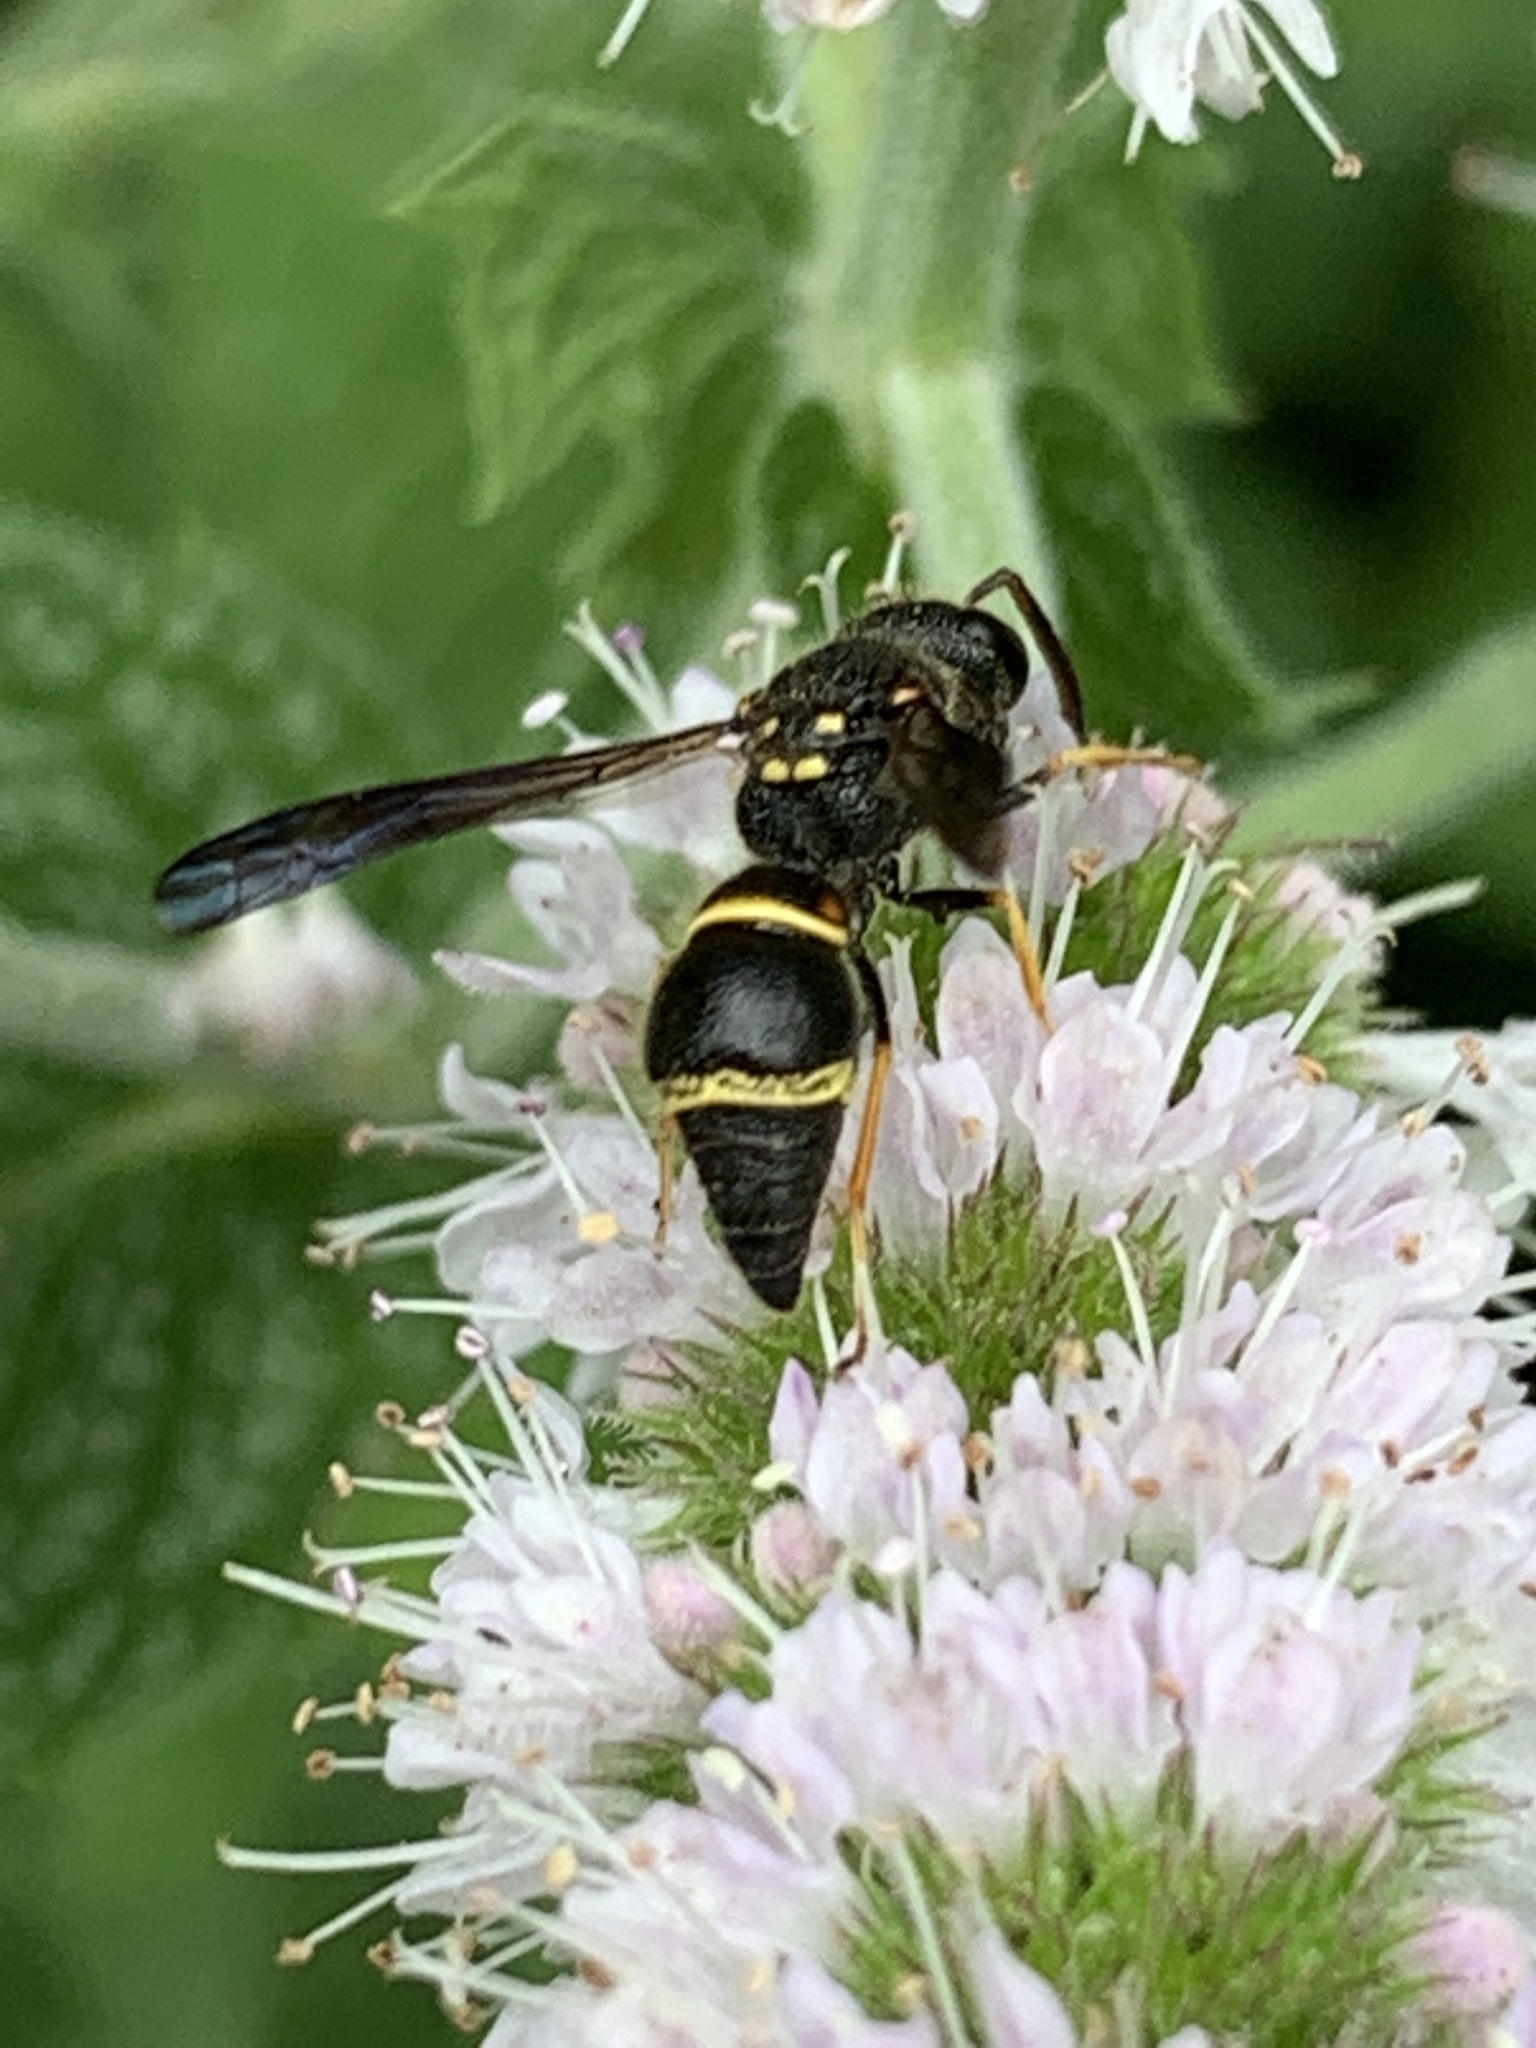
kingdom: Animalia
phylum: Arthropoda
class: Insecta
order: Hymenoptera
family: Vespidae
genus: Ancistrocerus
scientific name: Ancistrocerus campestris
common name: Smiling mason wasp
